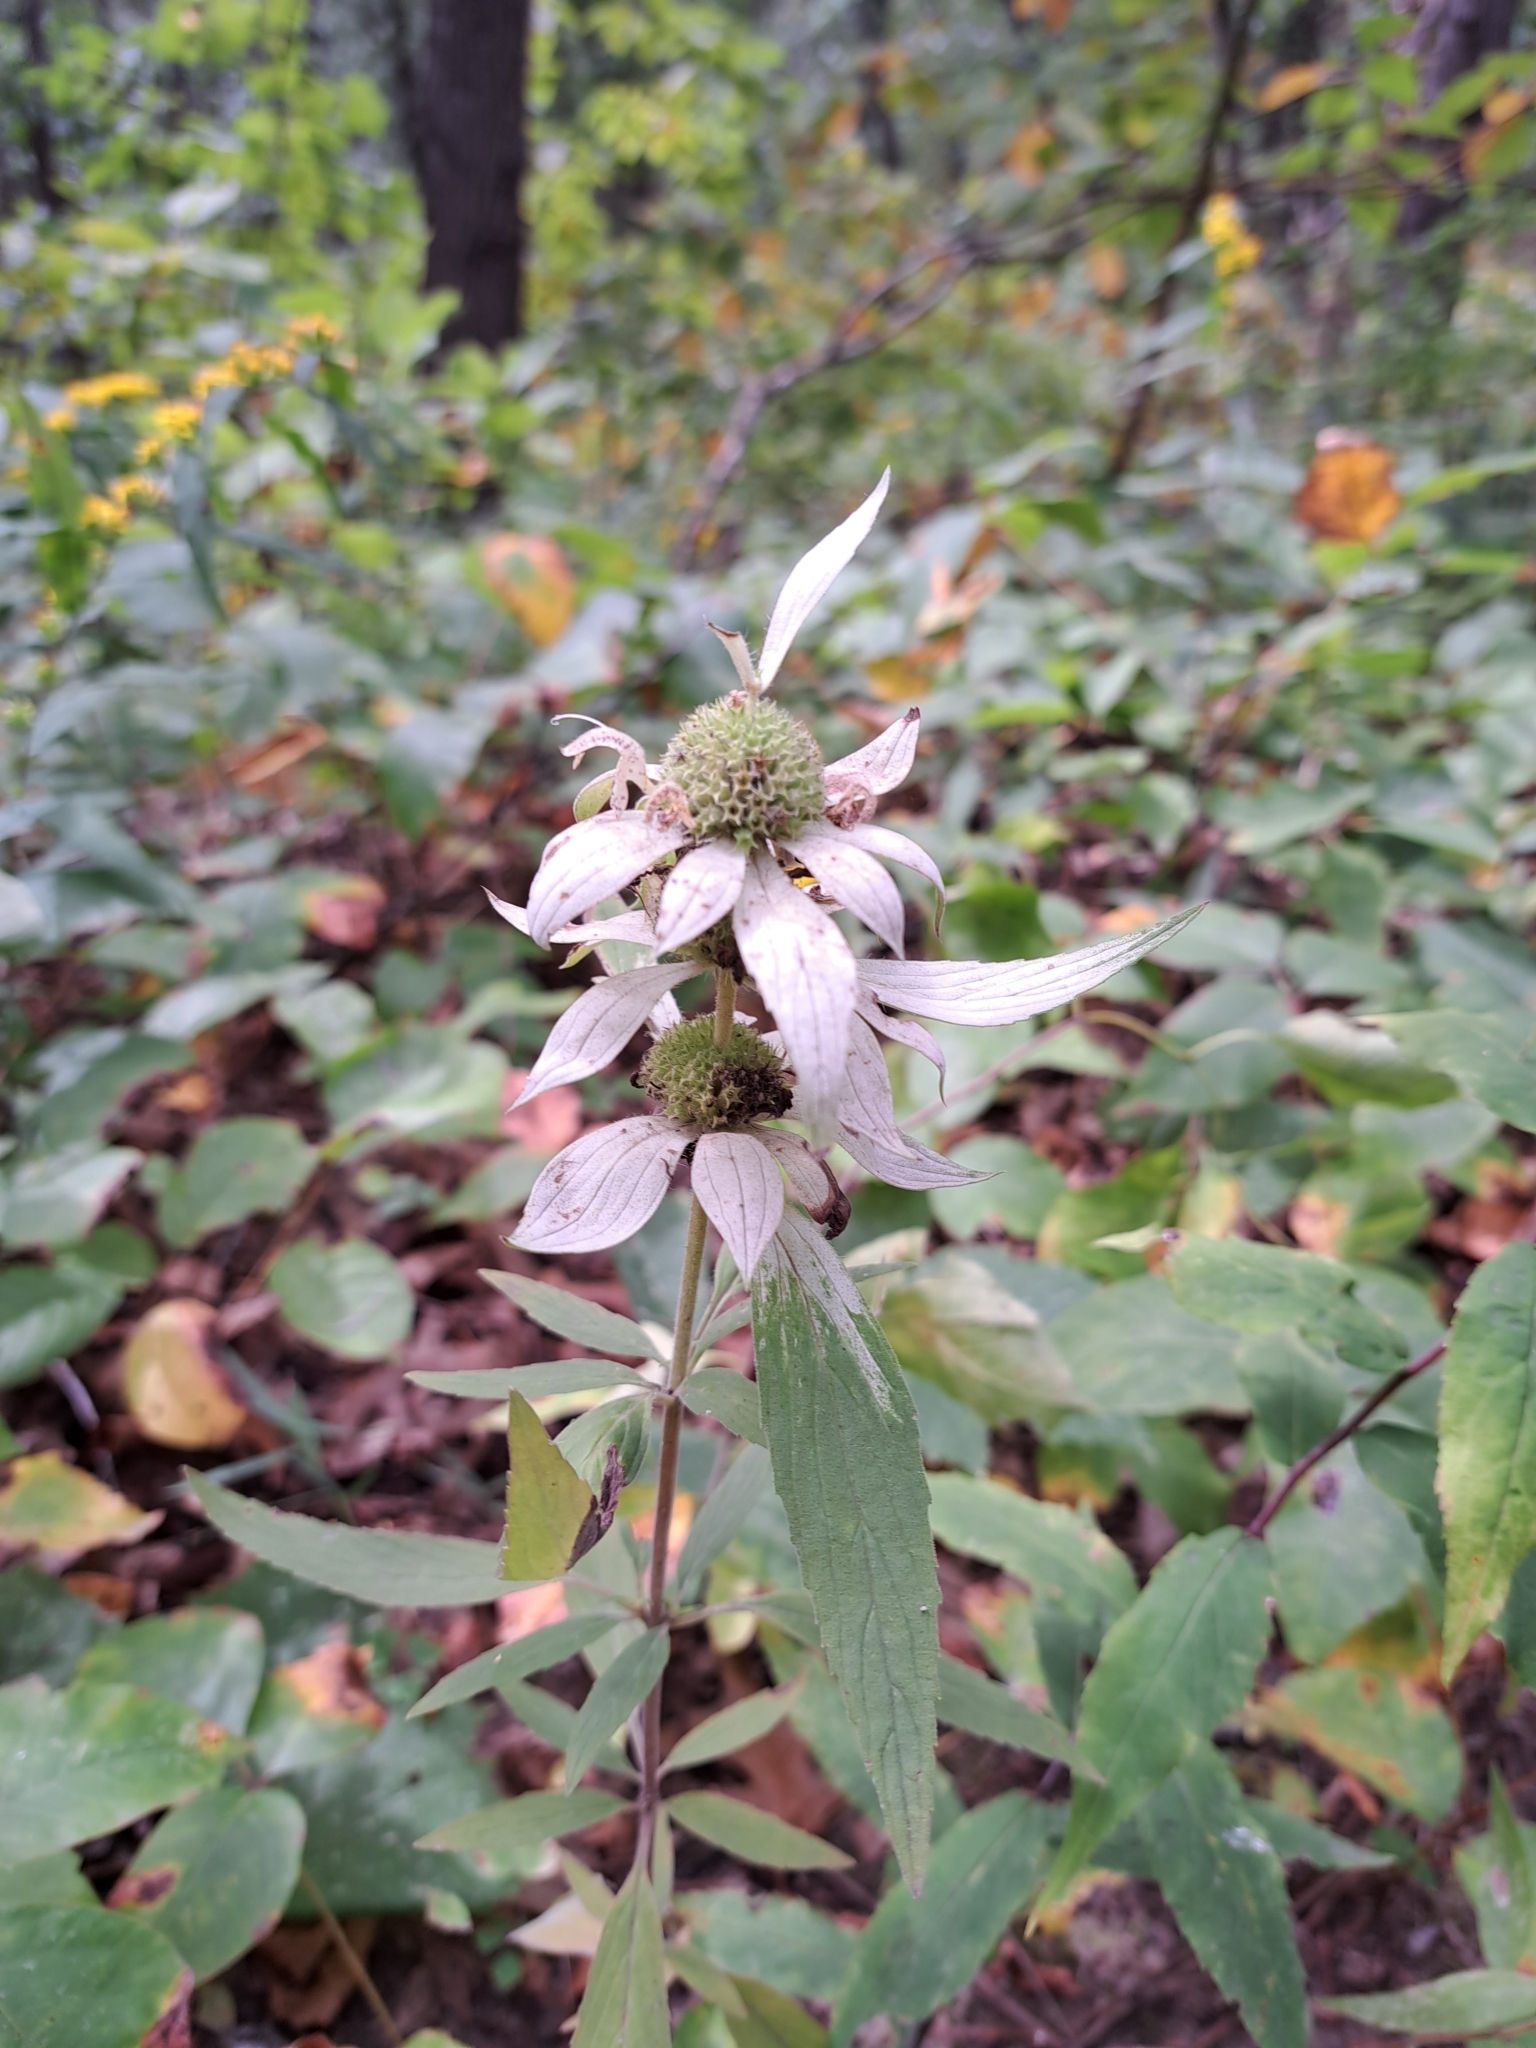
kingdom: Plantae
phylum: Tracheophyta
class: Magnoliopsida
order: Lamiales
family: Lamiaceae
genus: Monarda
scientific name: Monarda punctata
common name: Dotted monarda
